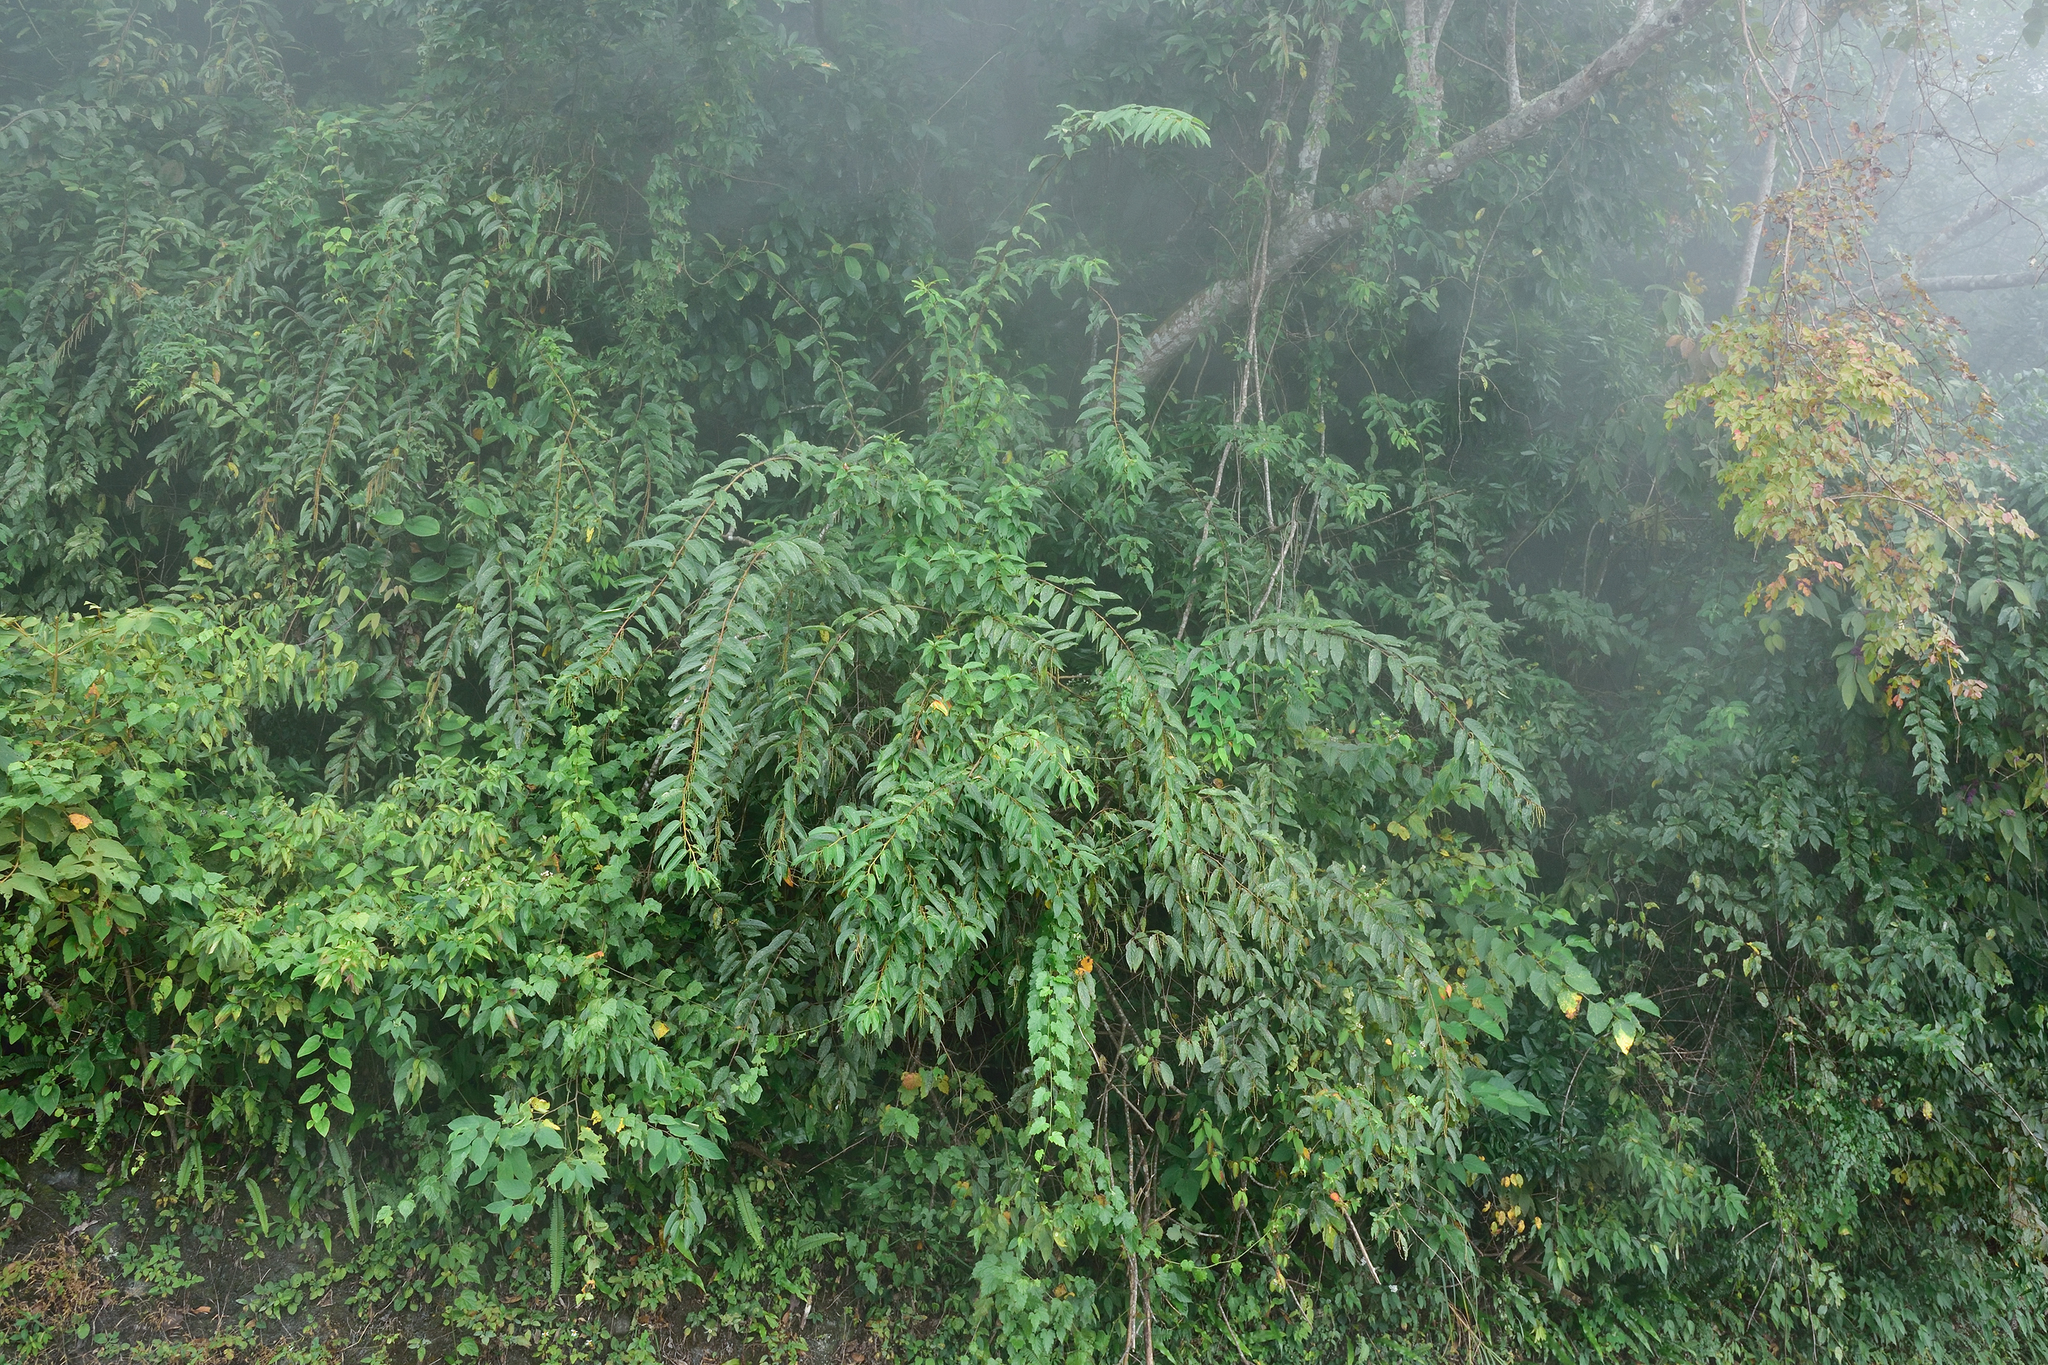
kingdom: Plantae
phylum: Tracheophyta
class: Magnoliopsida
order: Crossosomatales
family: Stachyuraceae
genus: Stachyurus
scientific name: Stachyurus himalaicus
